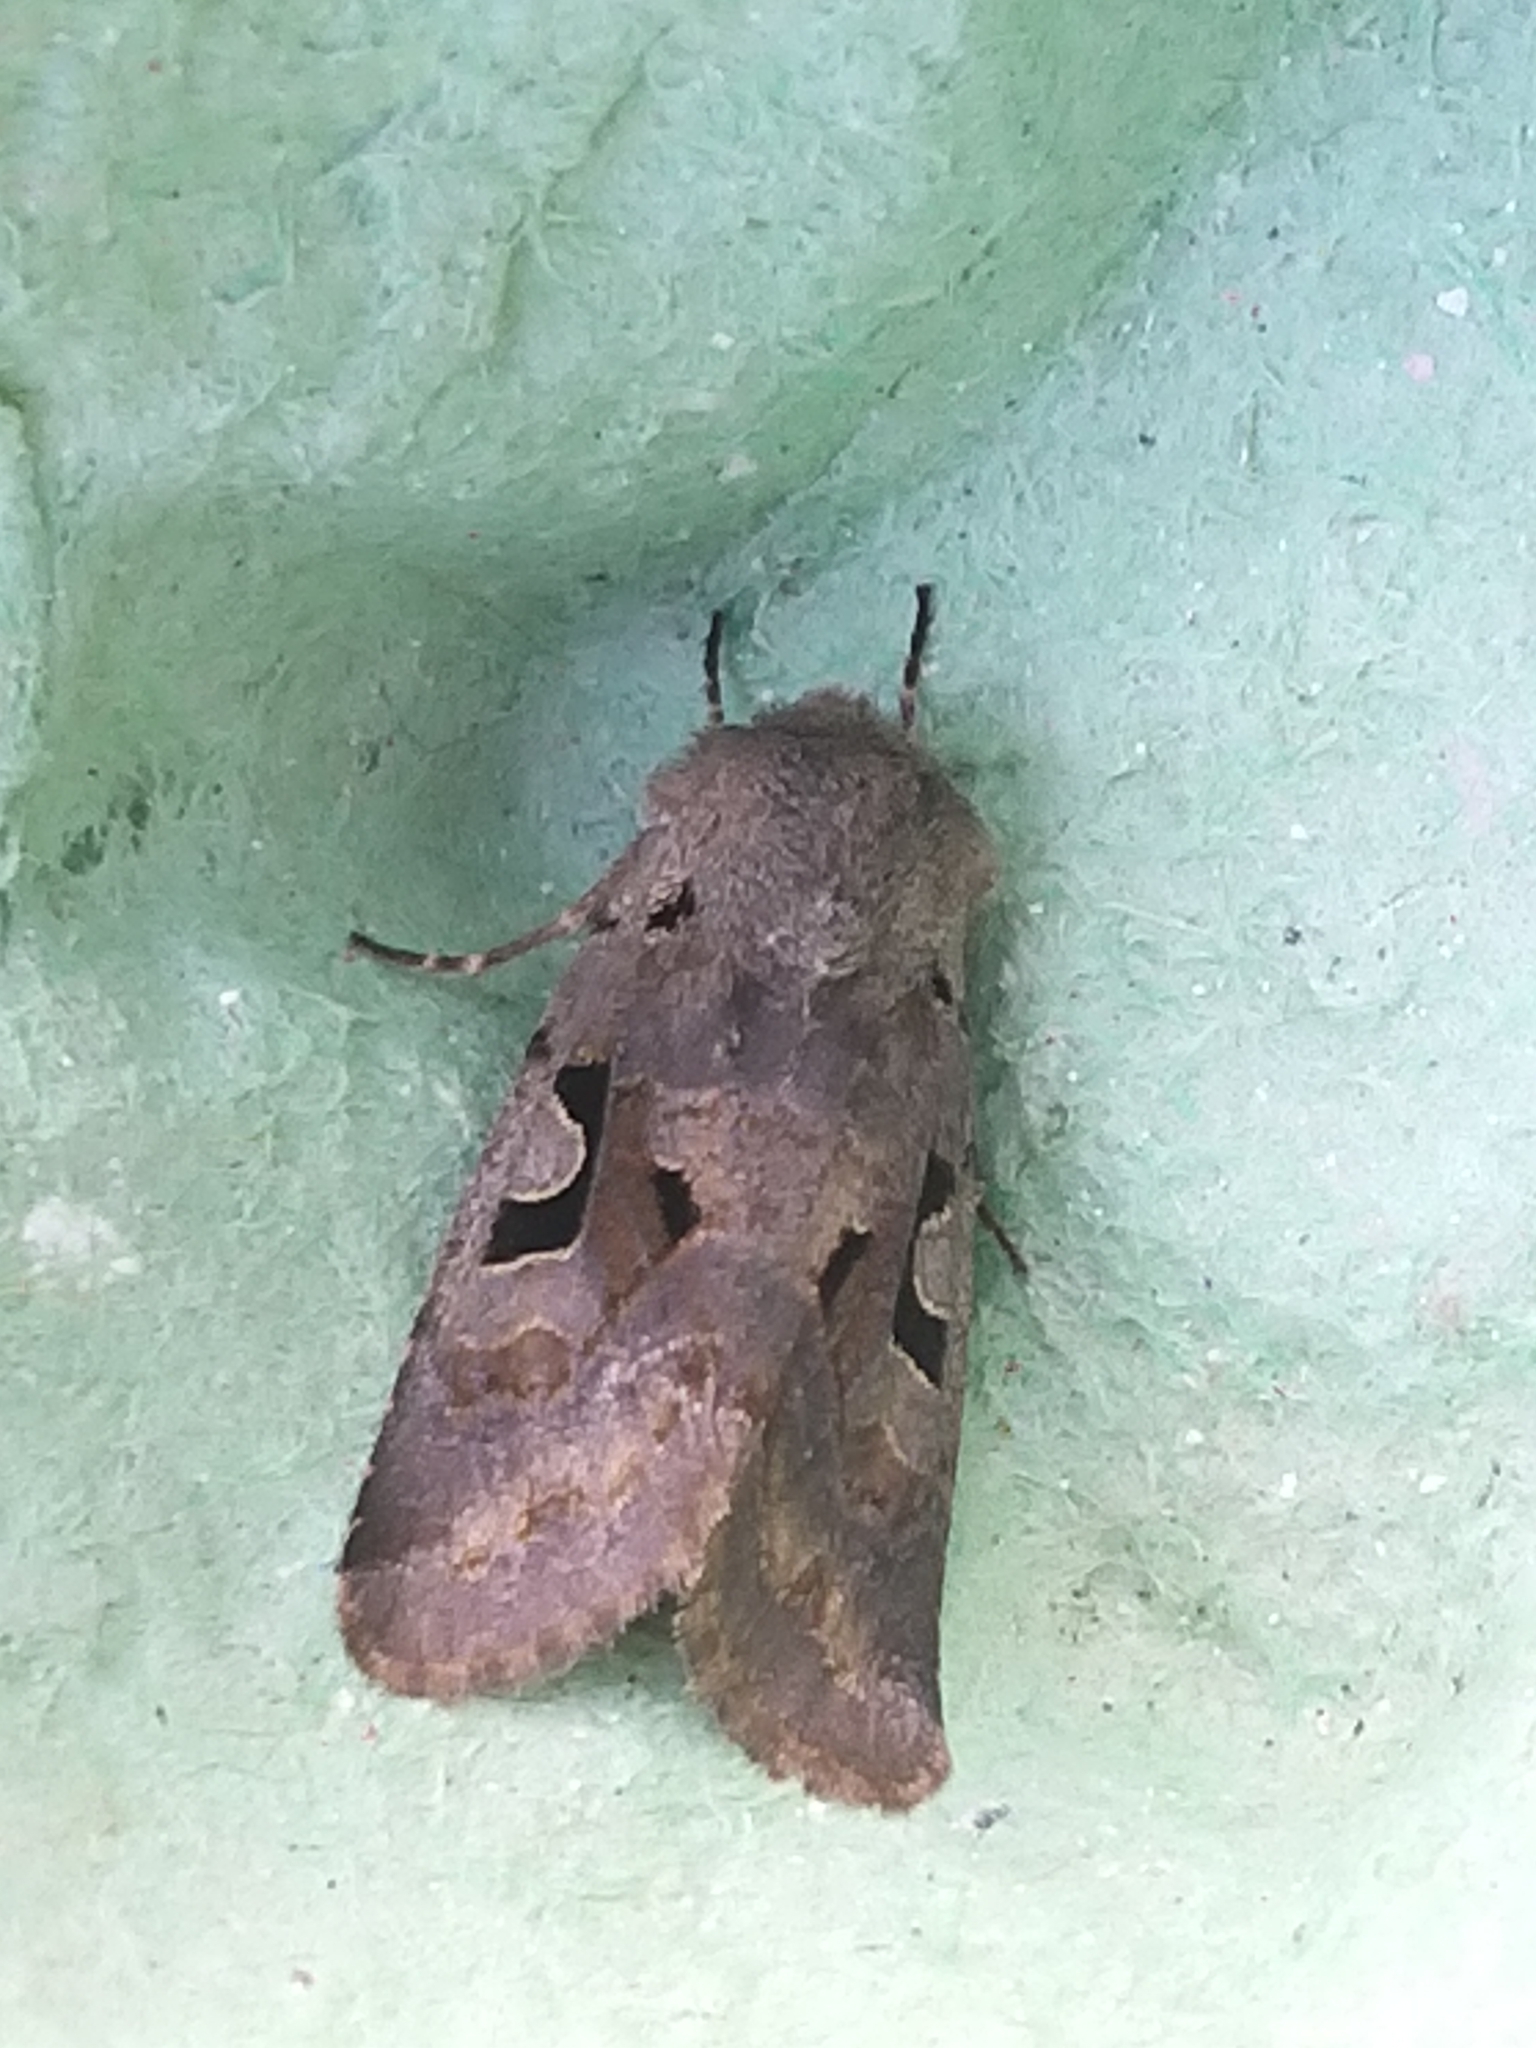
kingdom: Animalia
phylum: Arthropoda
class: Insecta
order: Lepidoptera
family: Noctuidae
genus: Orthosia
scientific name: Orthosia gothica
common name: Hebrew character
